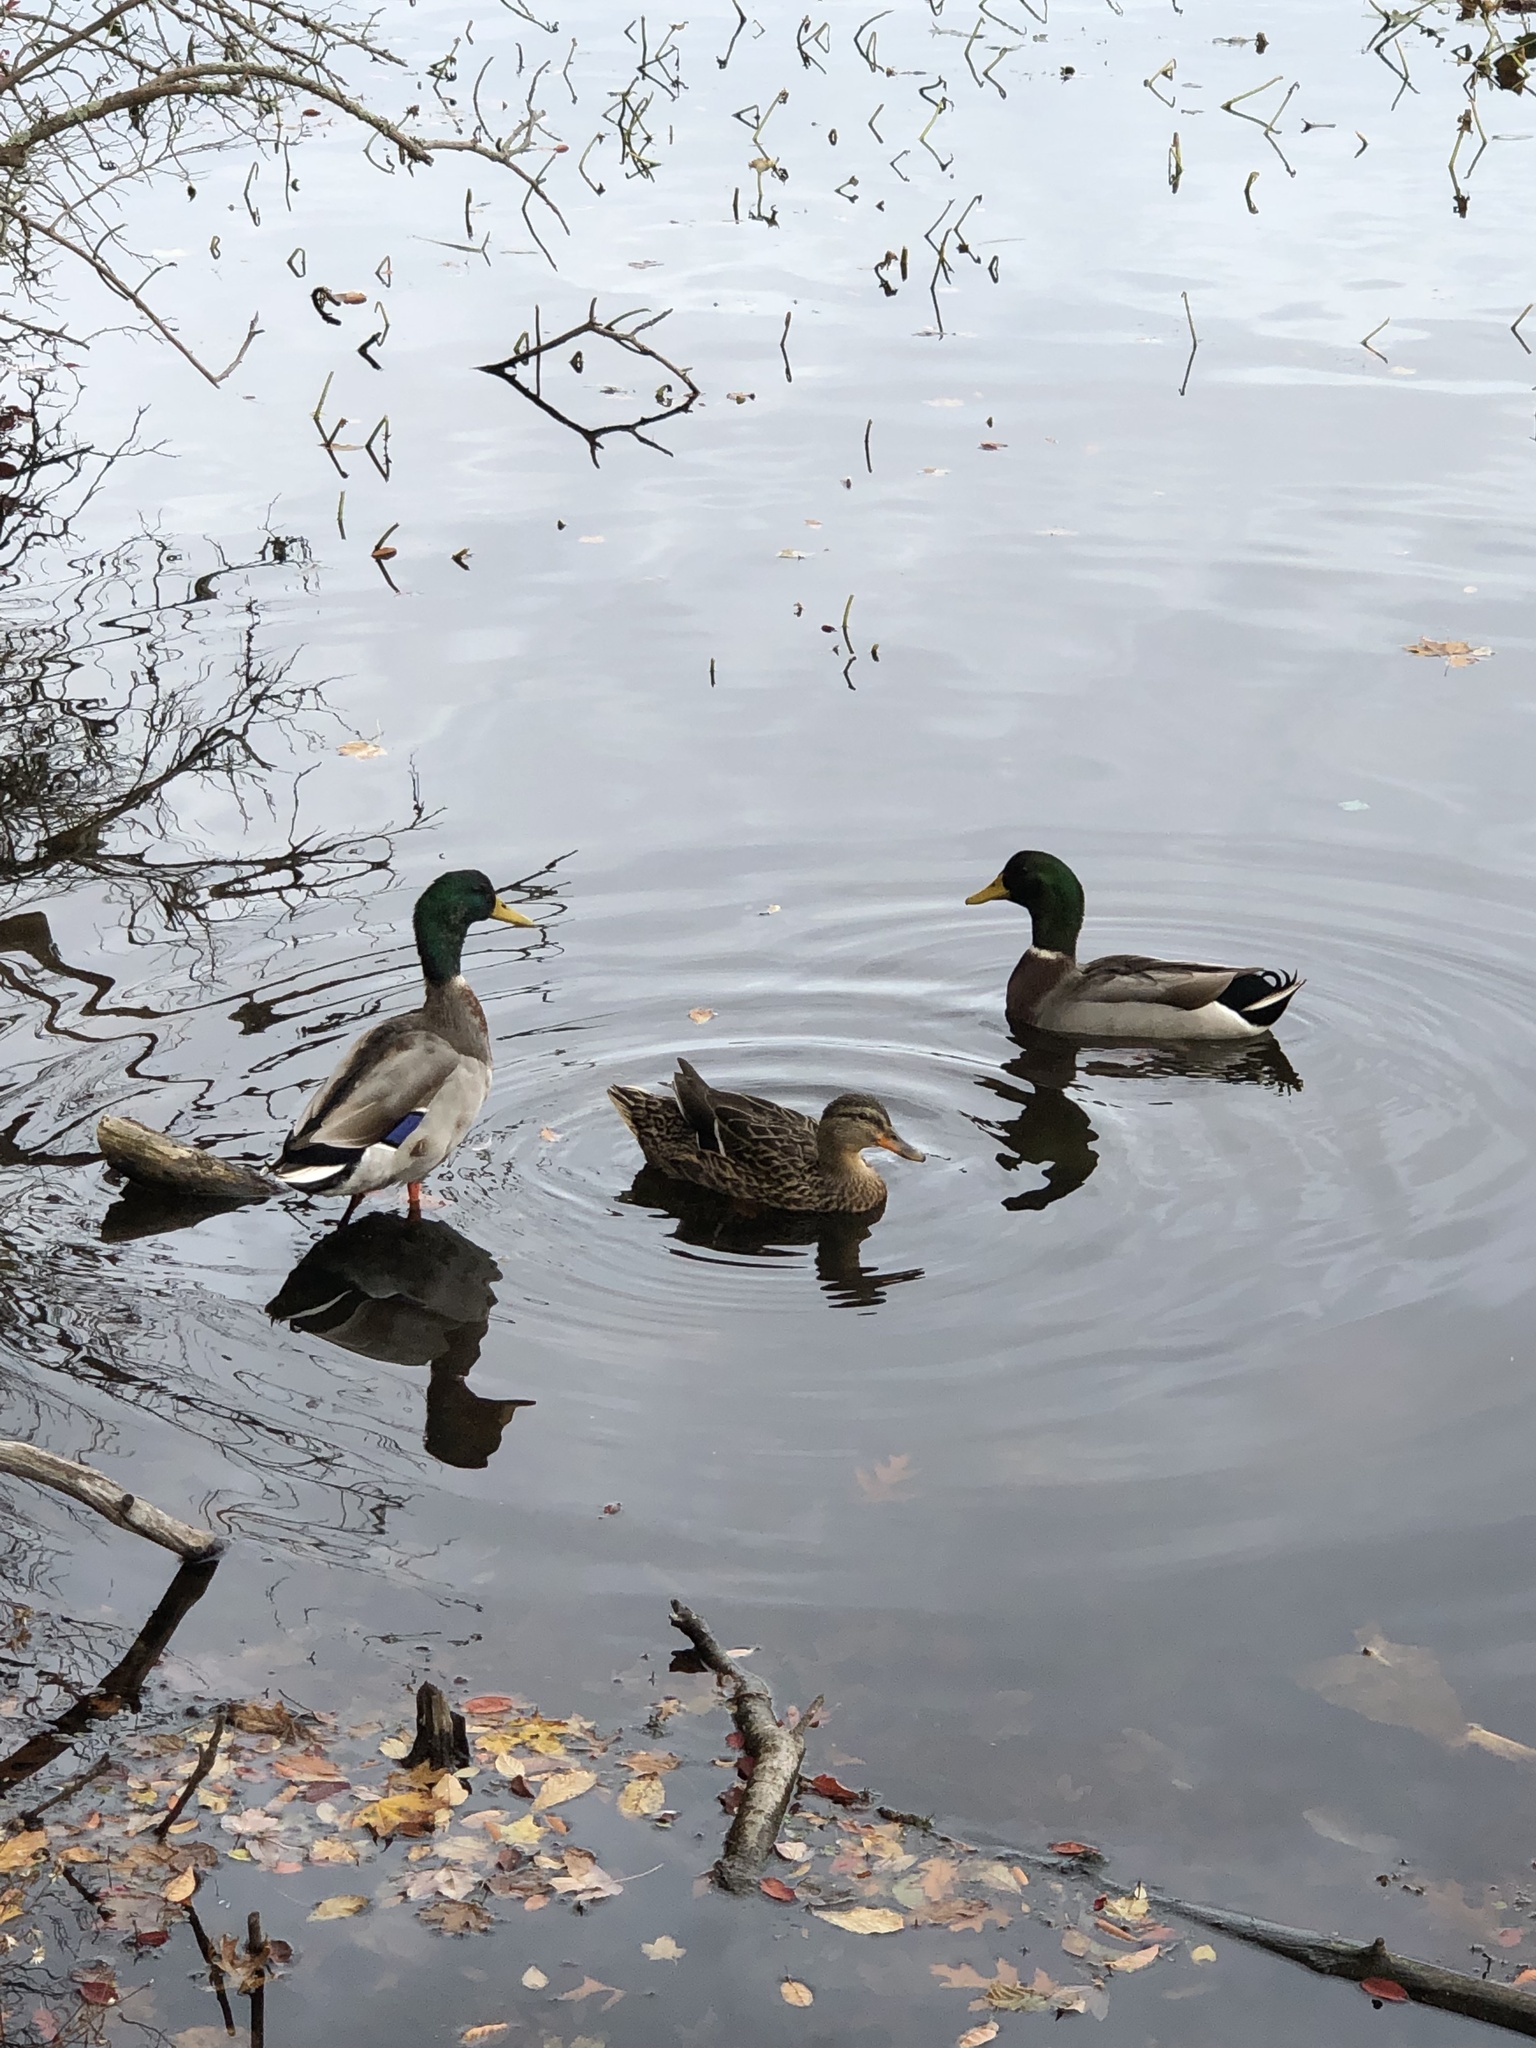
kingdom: Animalia
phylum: Chordata
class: Aves
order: Anseriformes
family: Anatidae
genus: Anas
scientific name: Anas platyrhynchos
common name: Mallard
